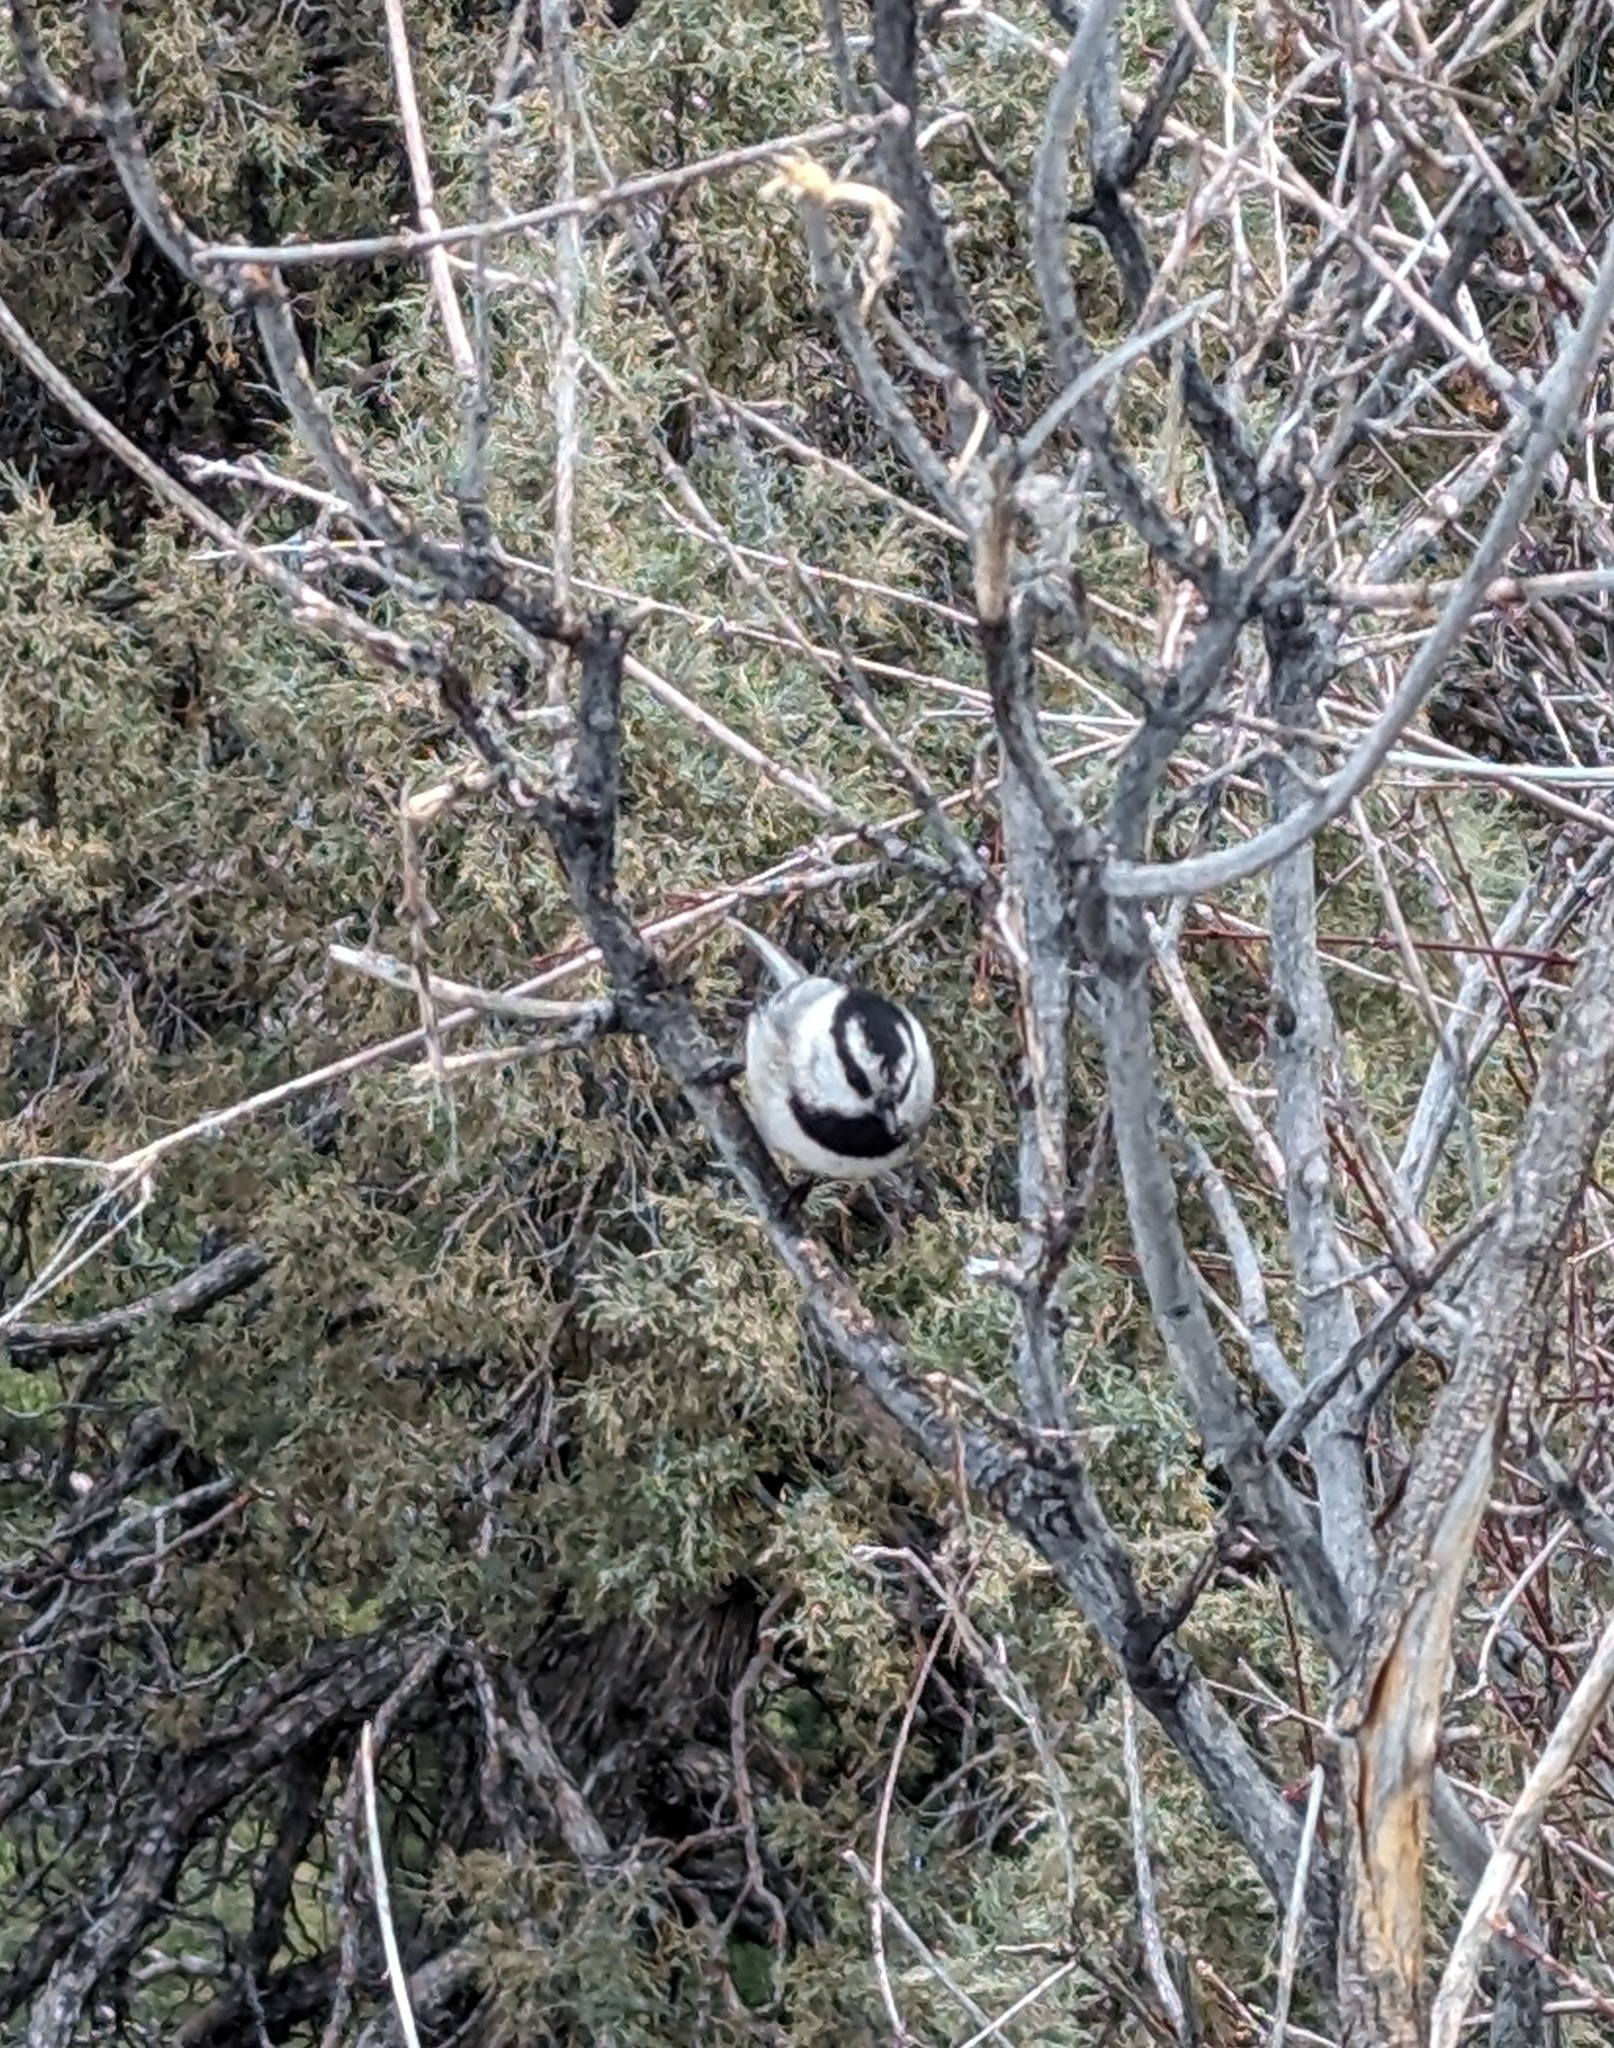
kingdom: Animalia
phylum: Chordata
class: Aves
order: Passeriformes
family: Paridae
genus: Poecile
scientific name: Poecile gambeli
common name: Mountain chickadee
